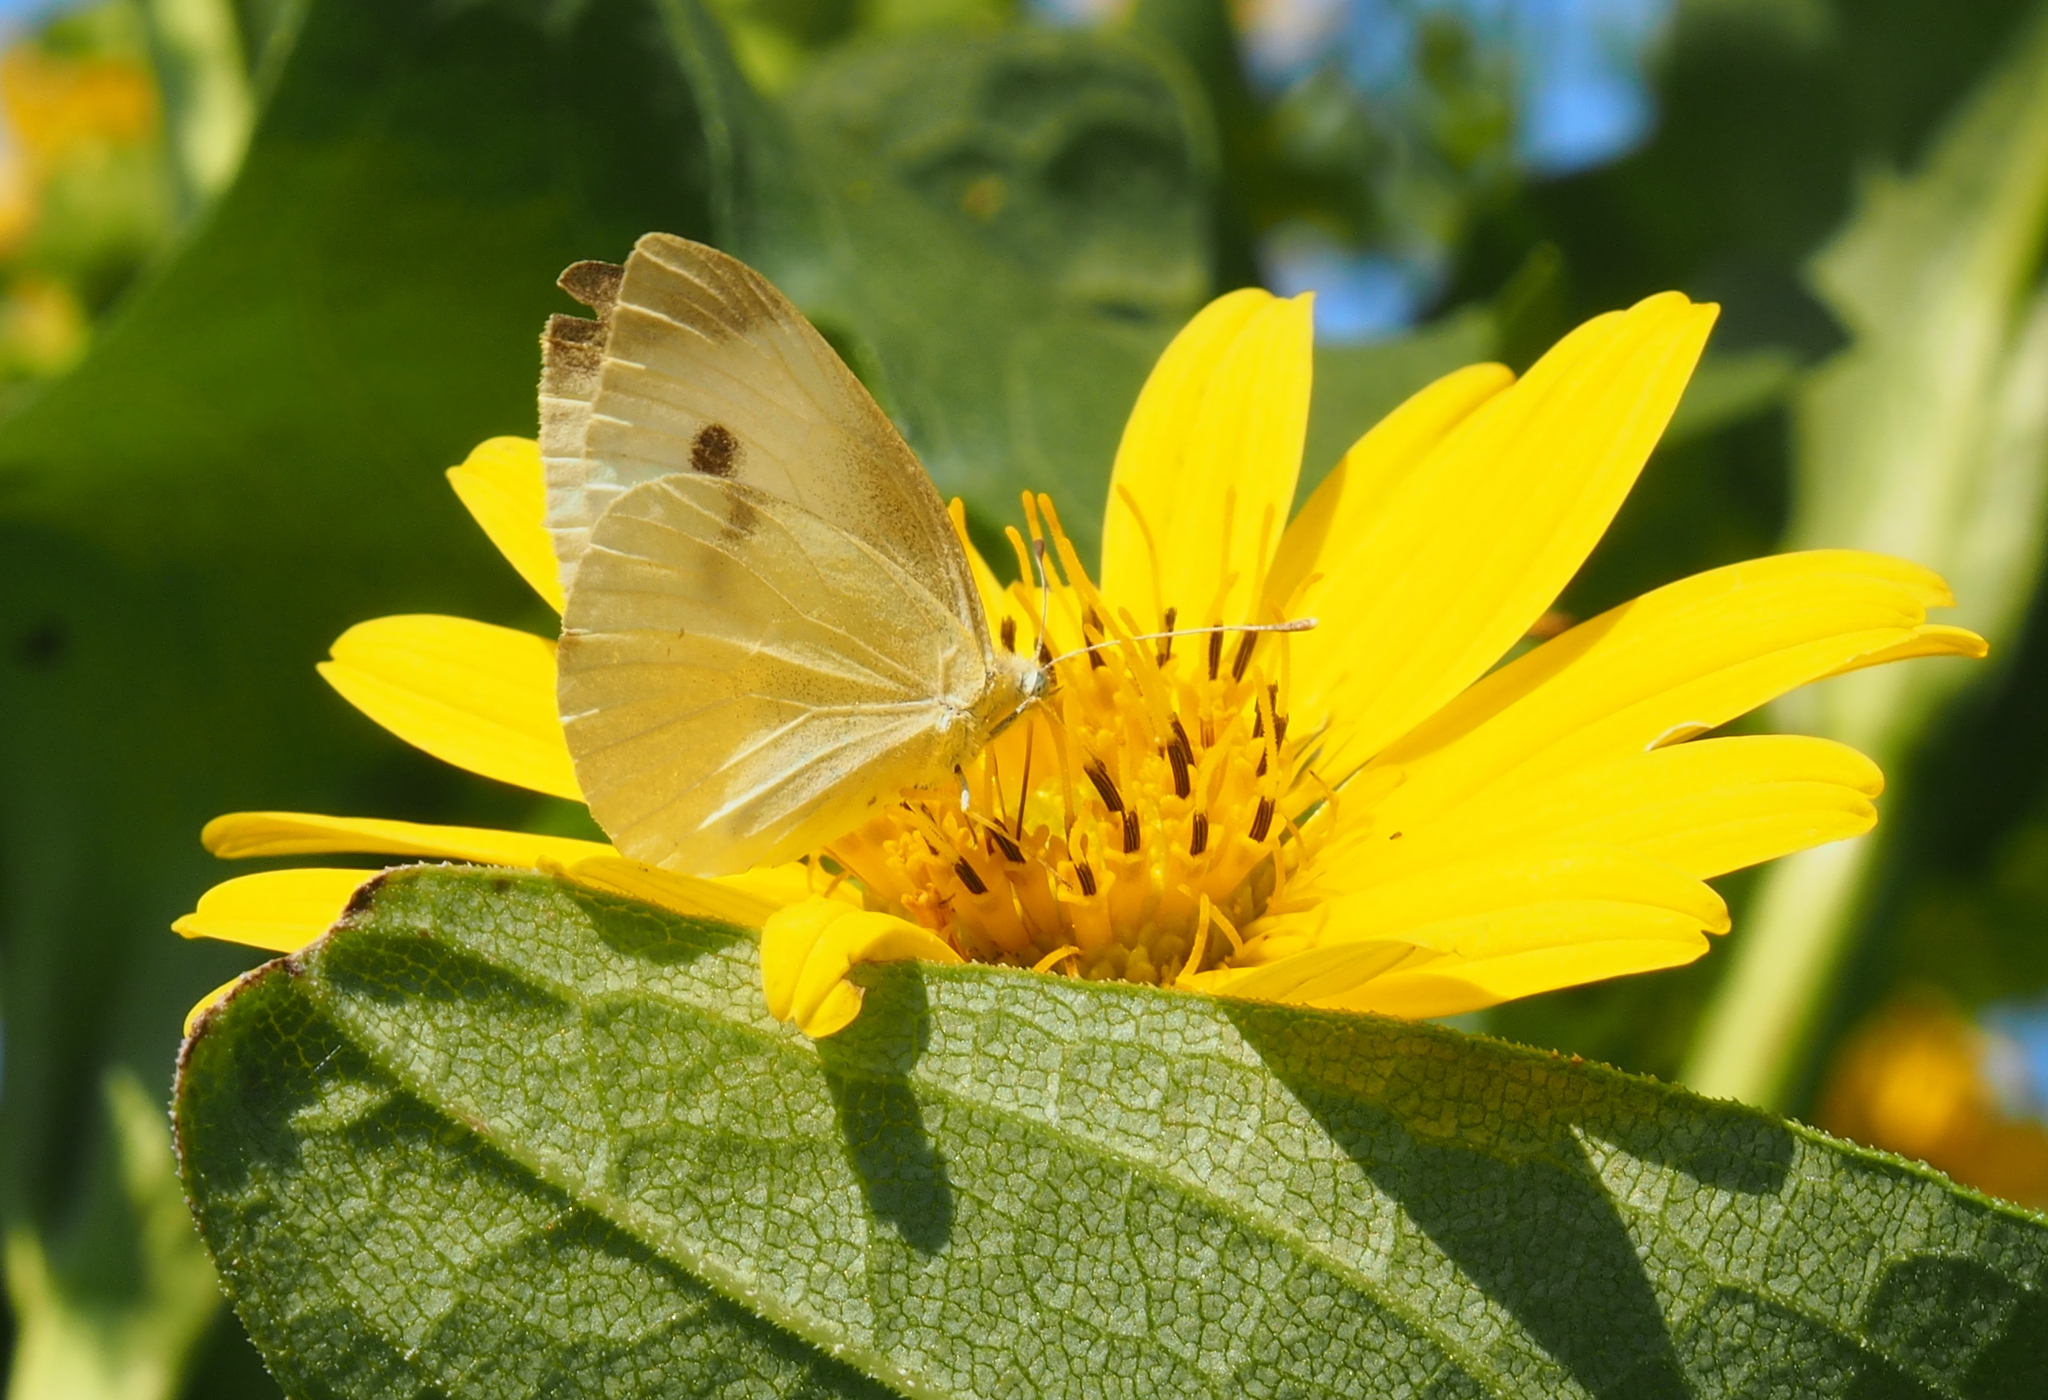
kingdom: Animalia
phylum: Arthropoda
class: Insecta
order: Lepidoptera
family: Pieridae
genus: Pieris
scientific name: Pieris rapae
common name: Small white
